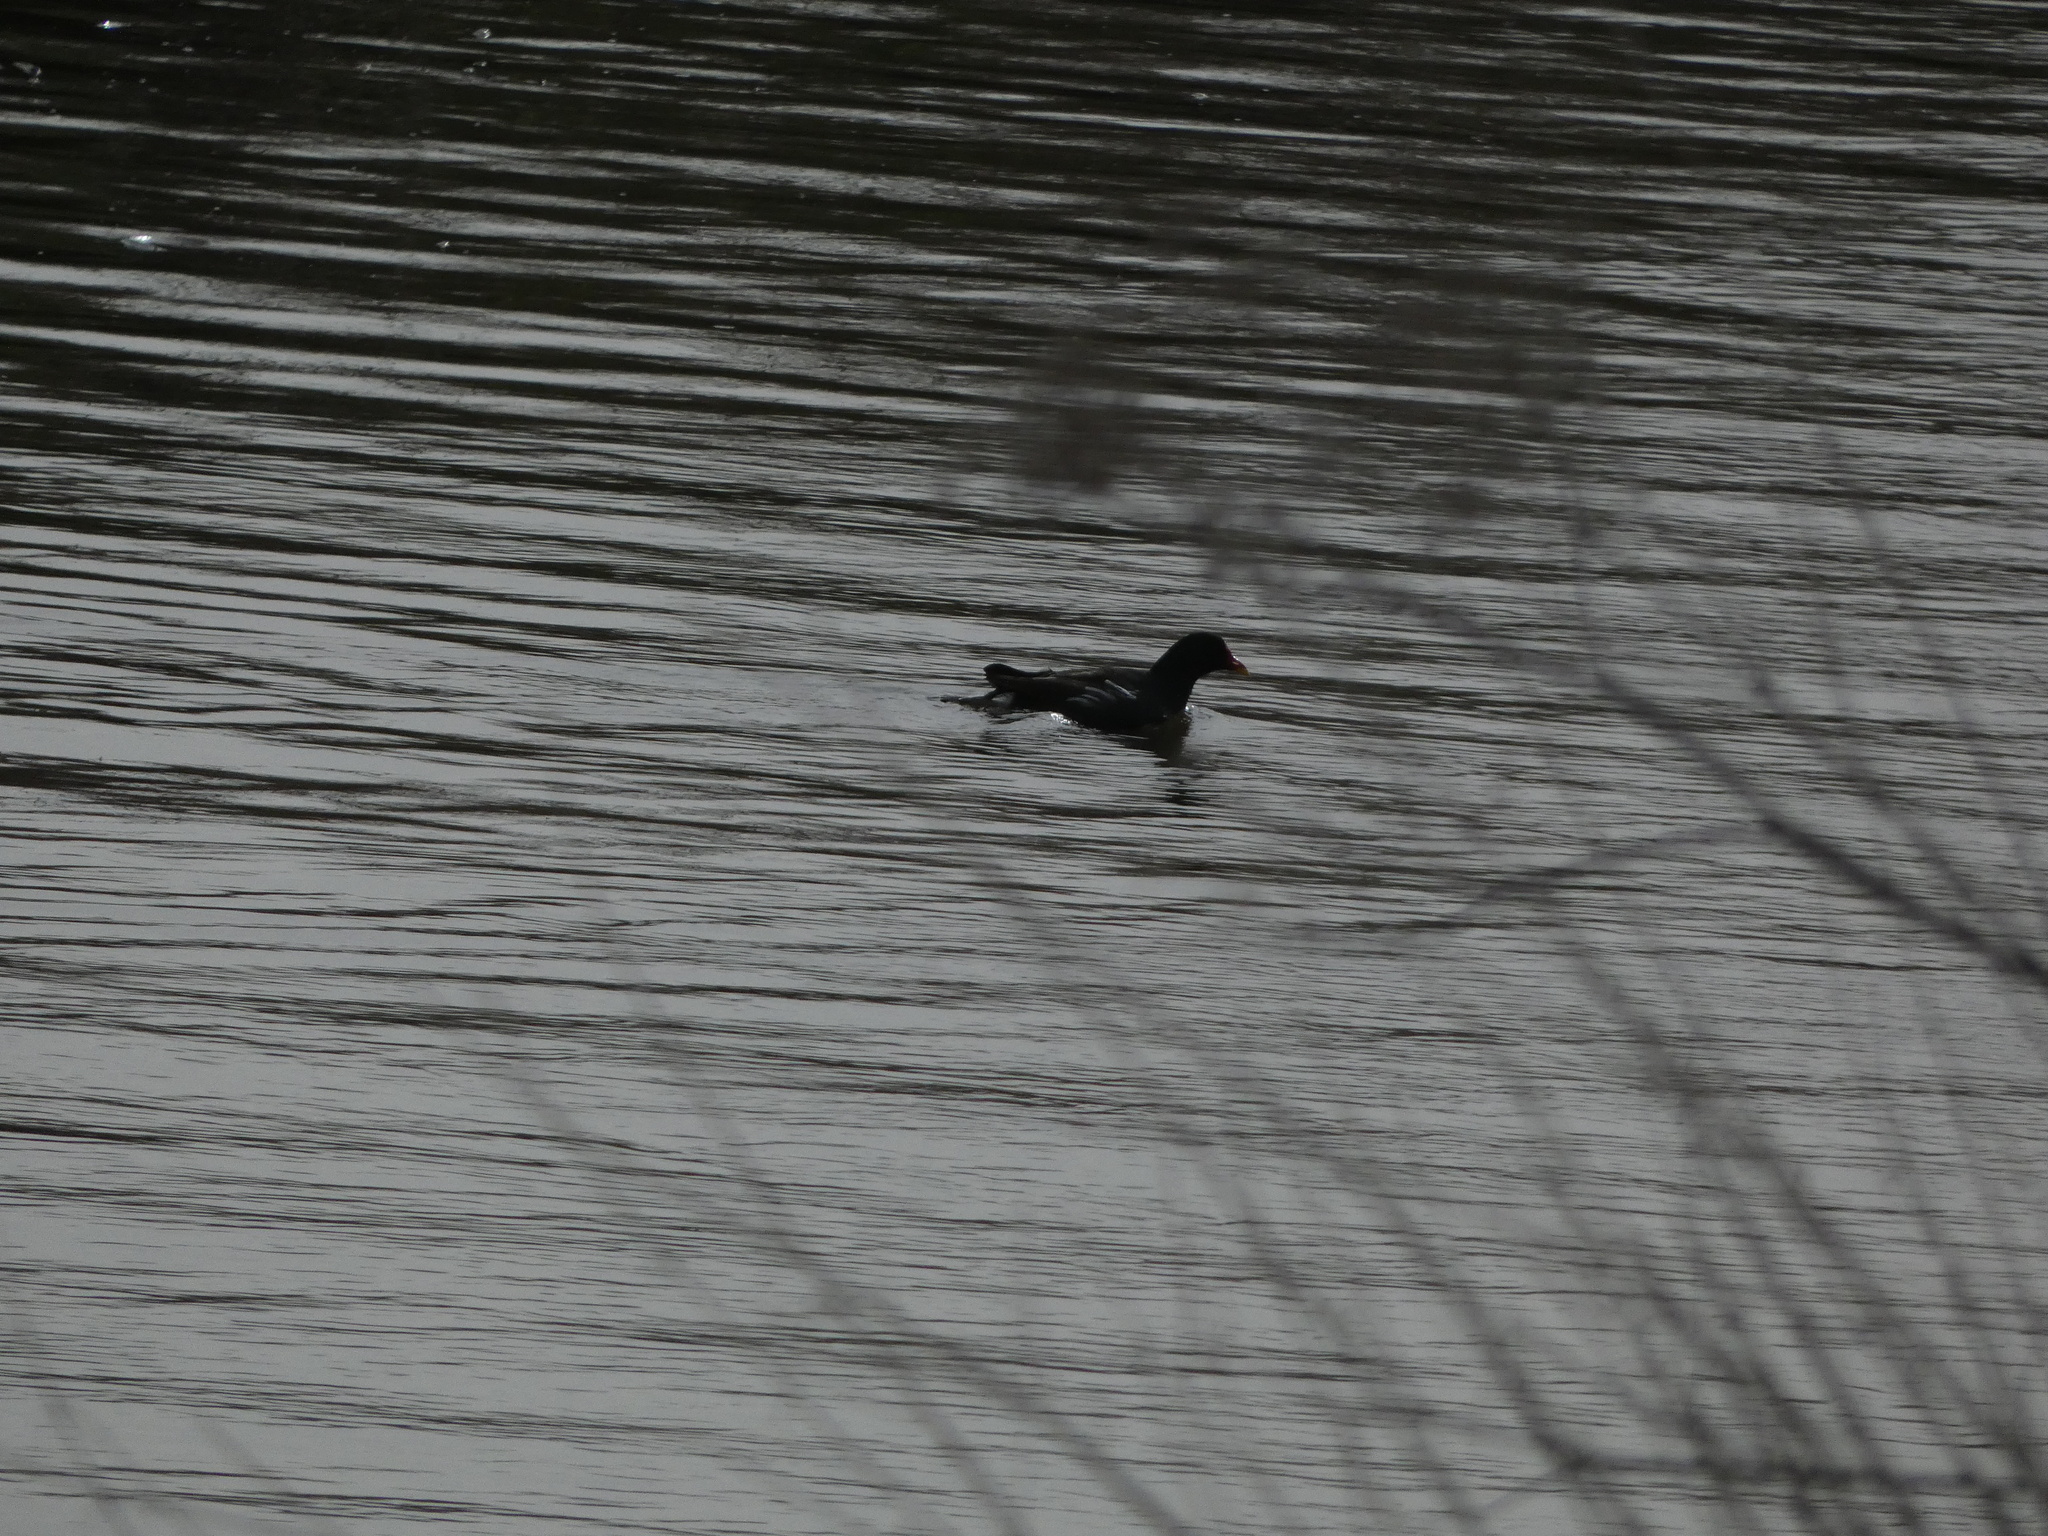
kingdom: Animalia
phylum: Chordata
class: Aves
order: Gruiformes
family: Rallidae
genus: Gallinula
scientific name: Gallinula chloropus
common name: Common moorhen
